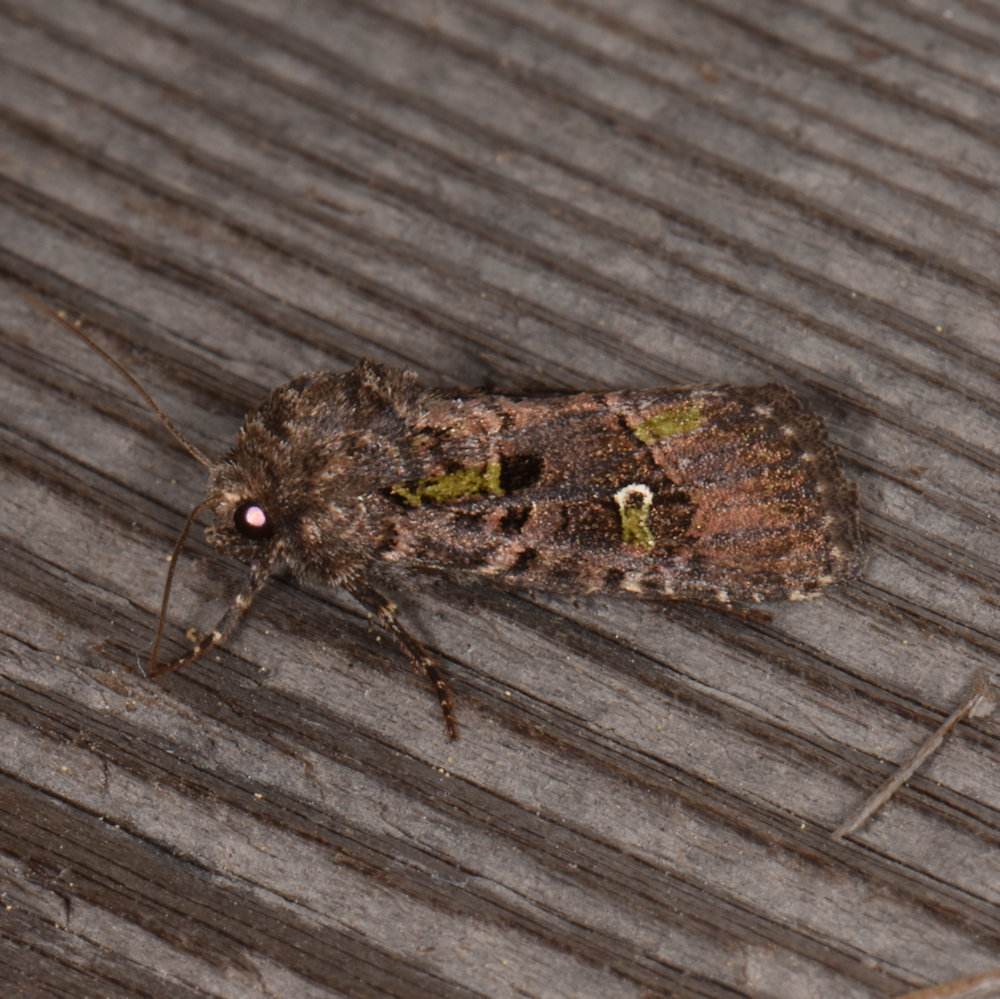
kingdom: Animalia
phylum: Arthropoda
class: Insecta
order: Lepidoptera
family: Noctuidae
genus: Lacinipolia
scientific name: Lacinipolia renigera
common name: Kidney-spotted minor
